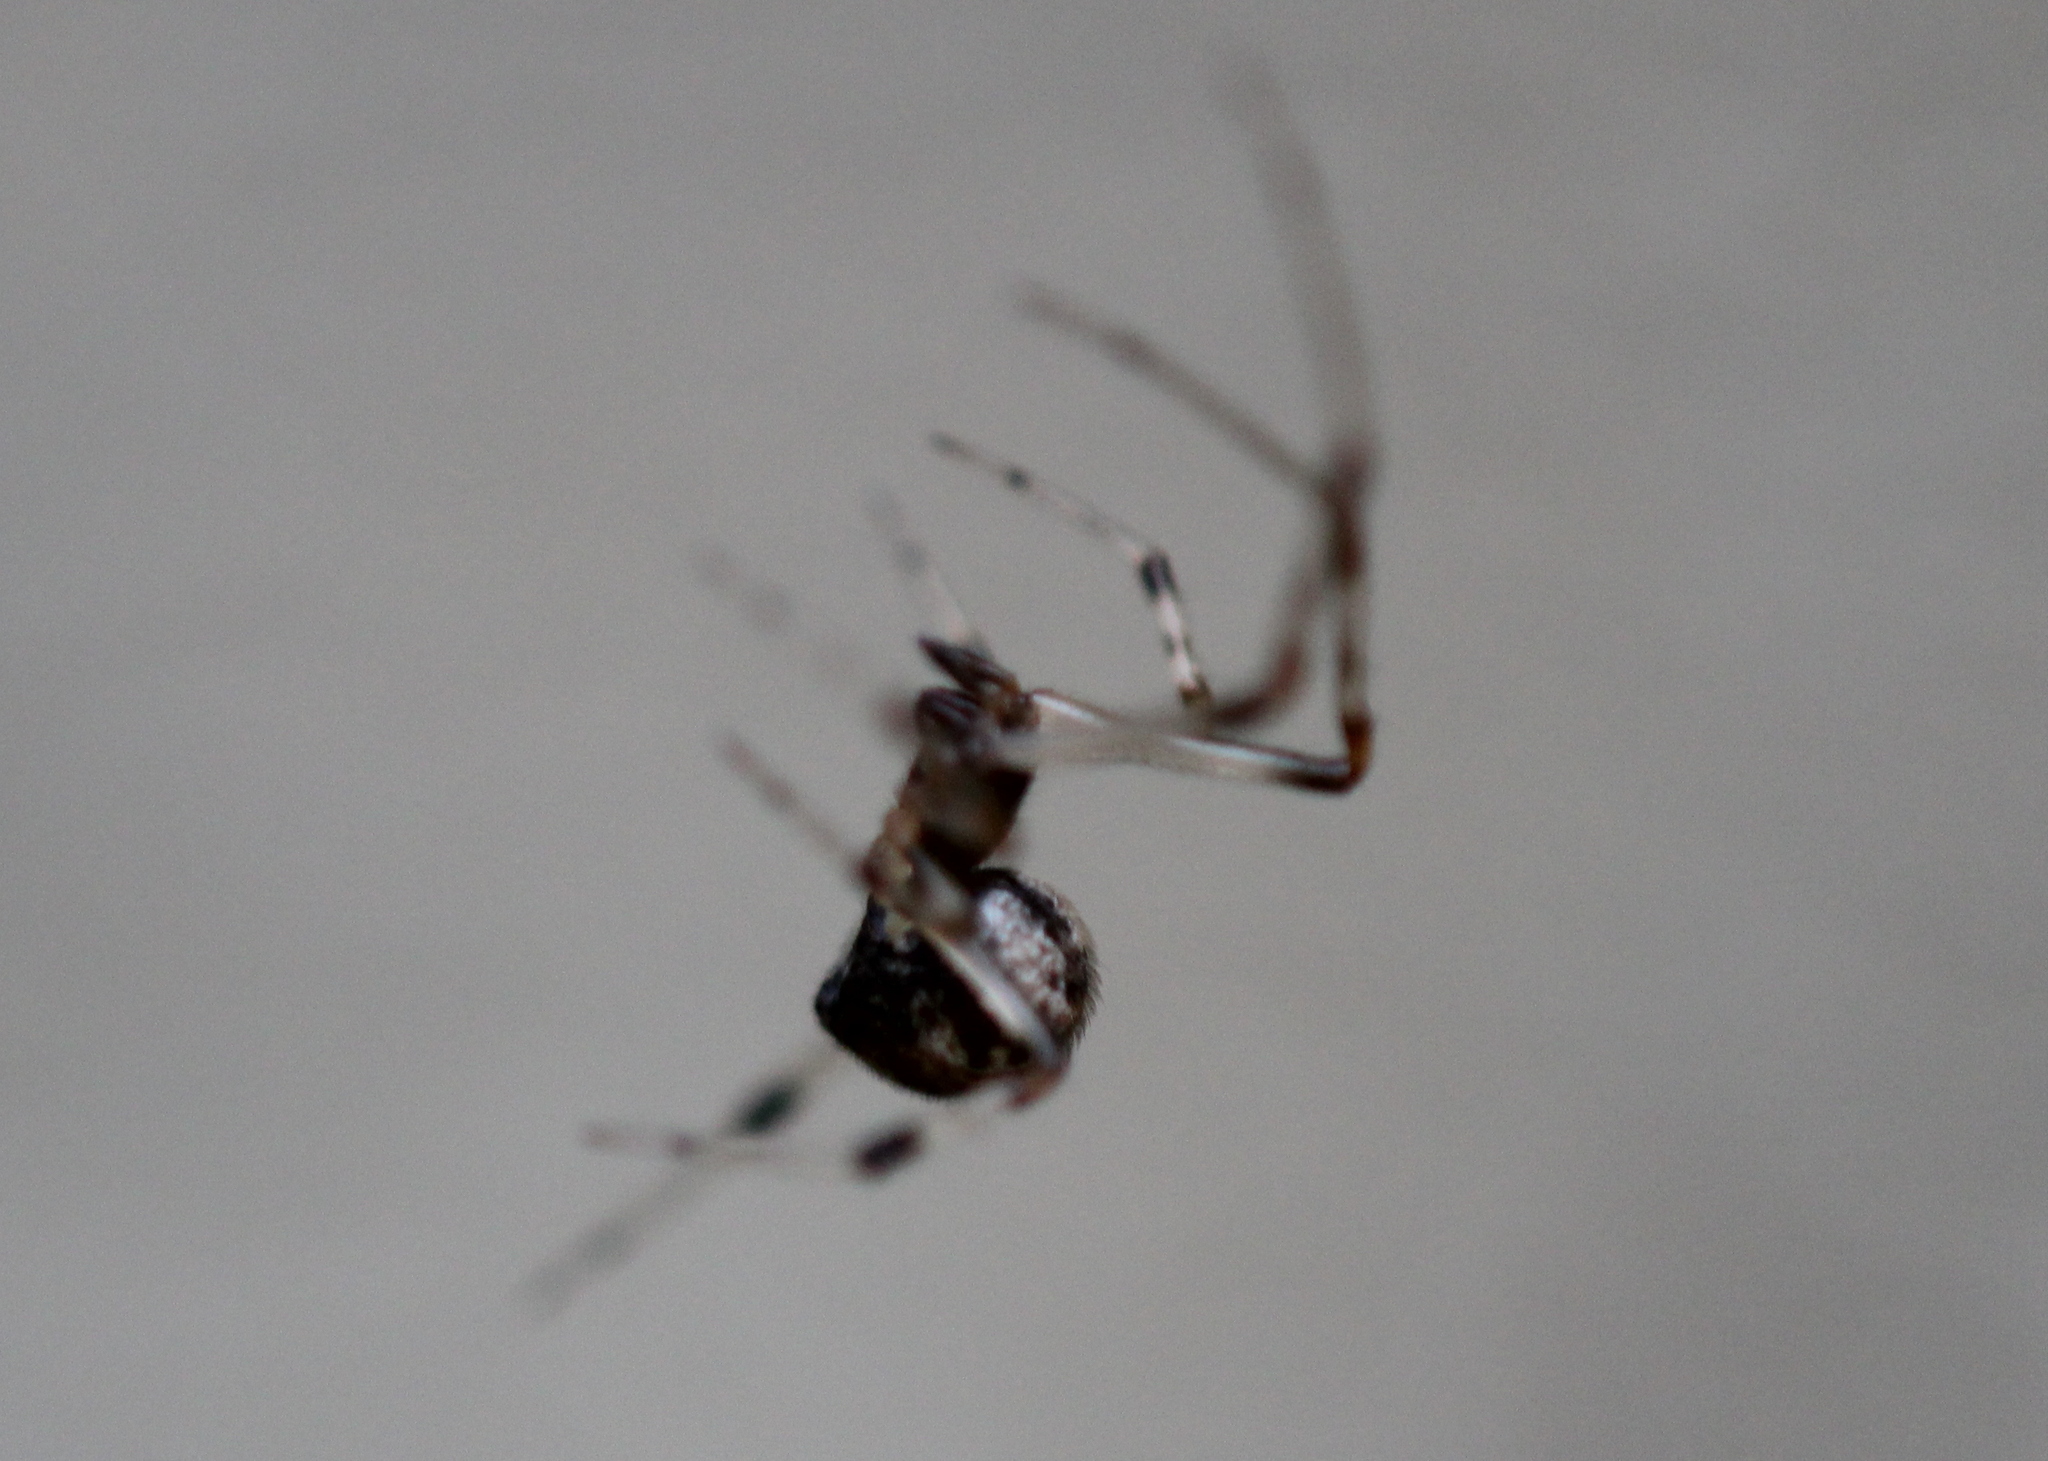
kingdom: Animalia
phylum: Arthropoda
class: Arachnida
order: Araneae
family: Theridiidae
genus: Parasteatoda
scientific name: Parasteatoda tabulata
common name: Comb-footed spider
